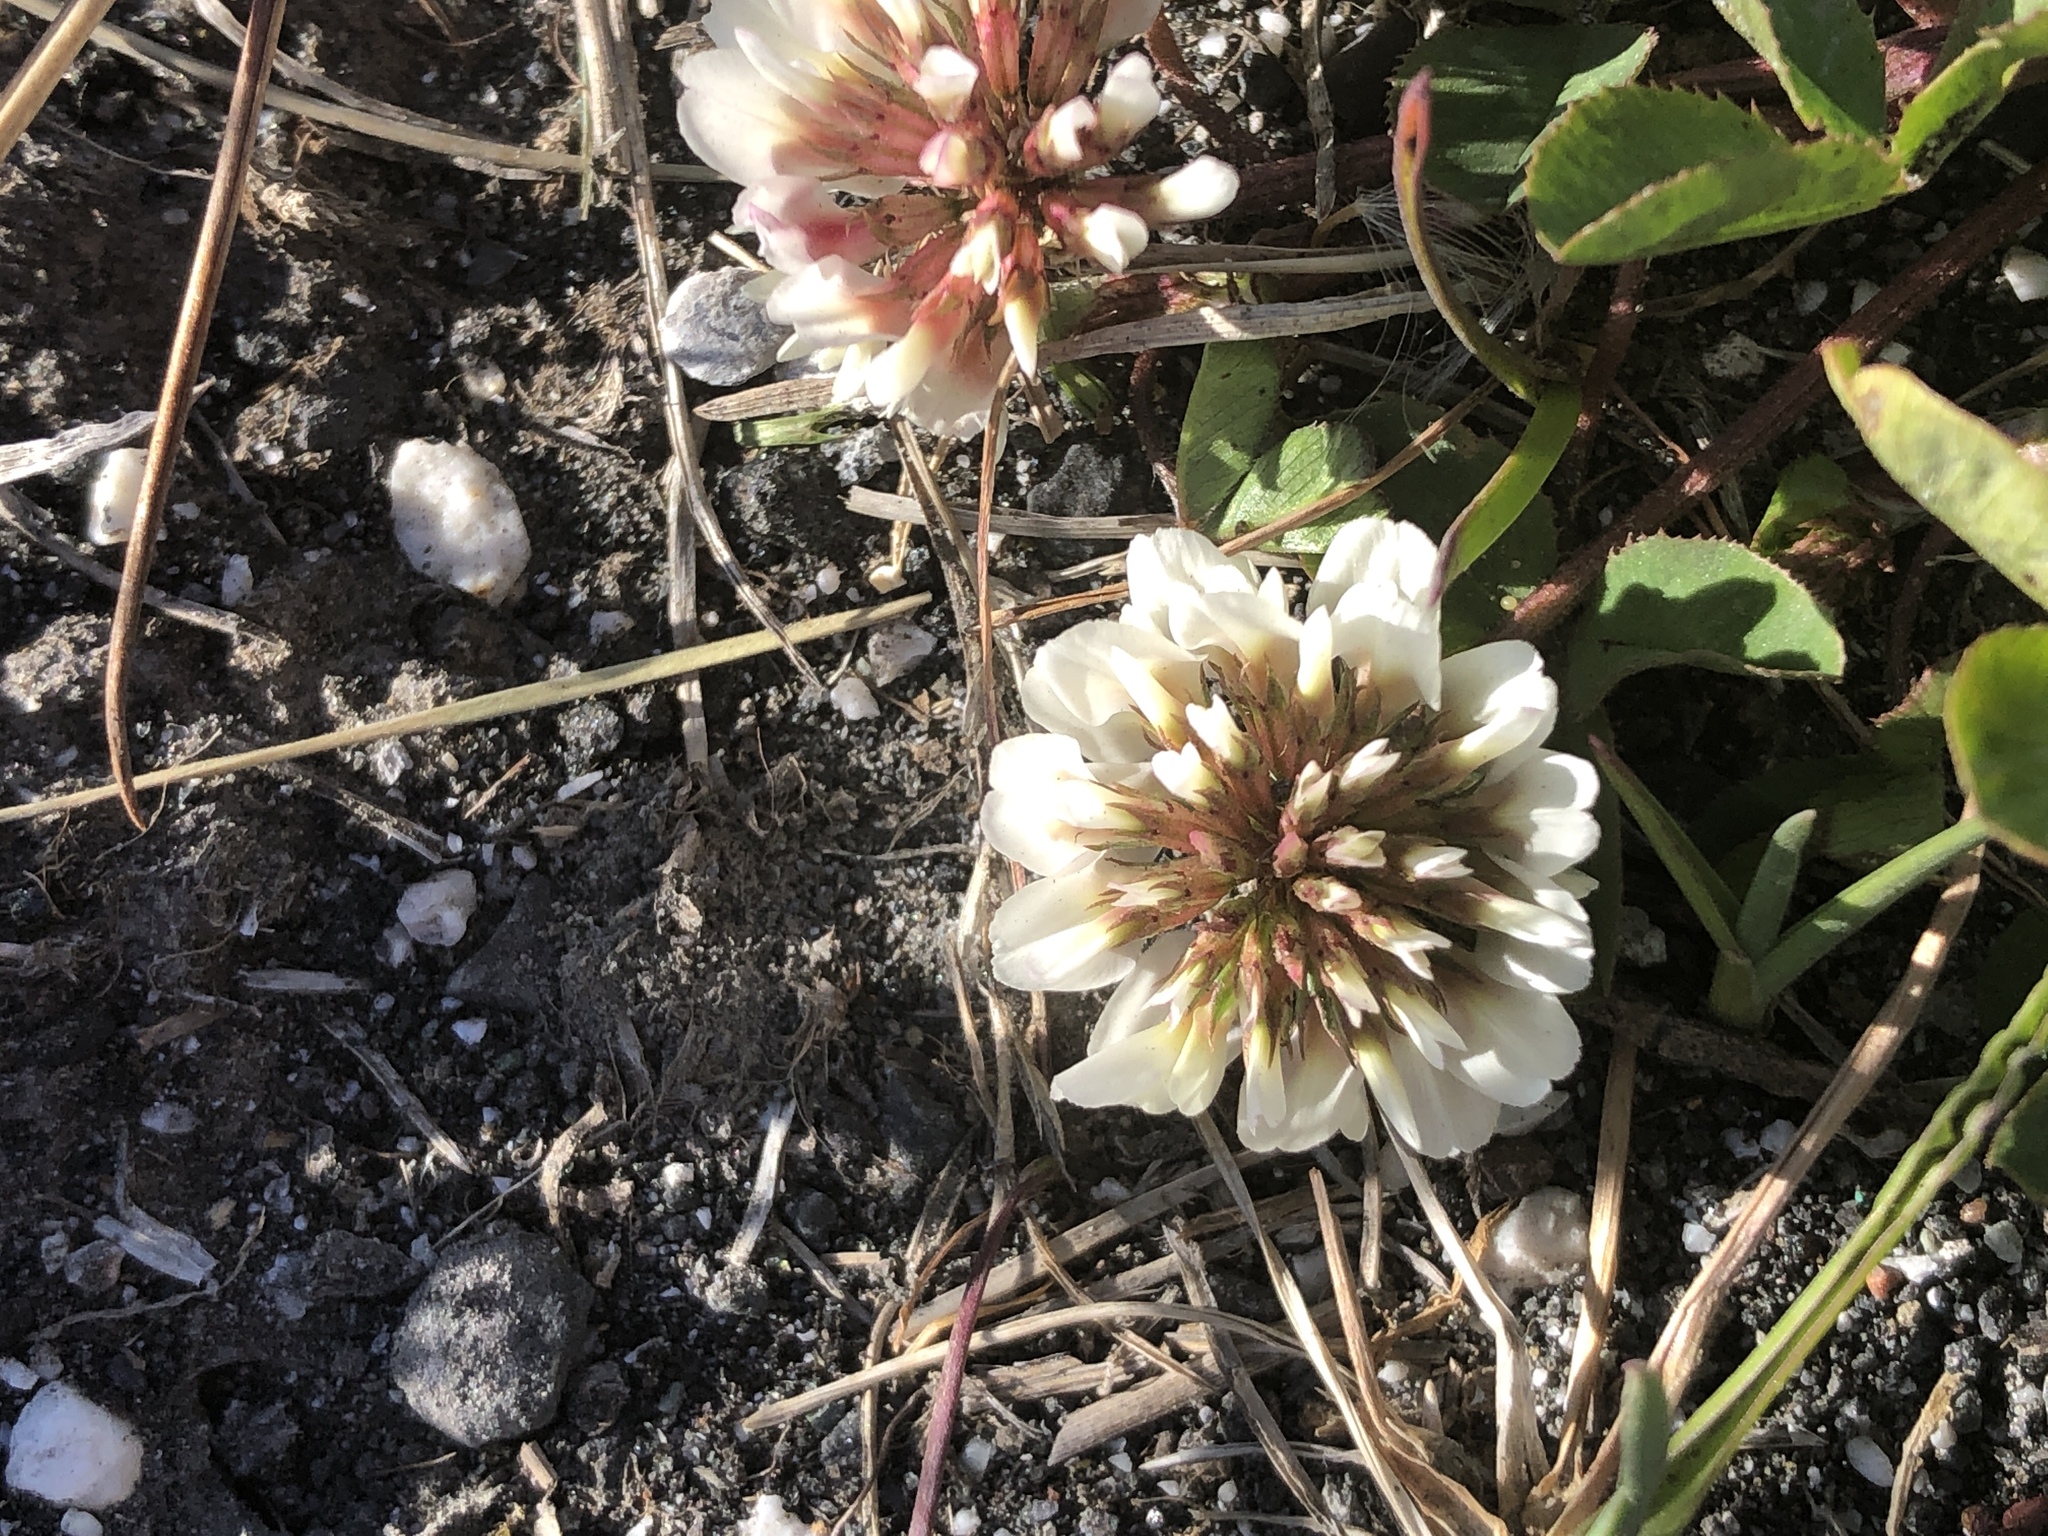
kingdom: Plantae
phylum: Tracheophyta
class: Magnoliopsida
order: Fabales
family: Fabaceae
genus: Trifolium
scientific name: Trifolium repens
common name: White clover
